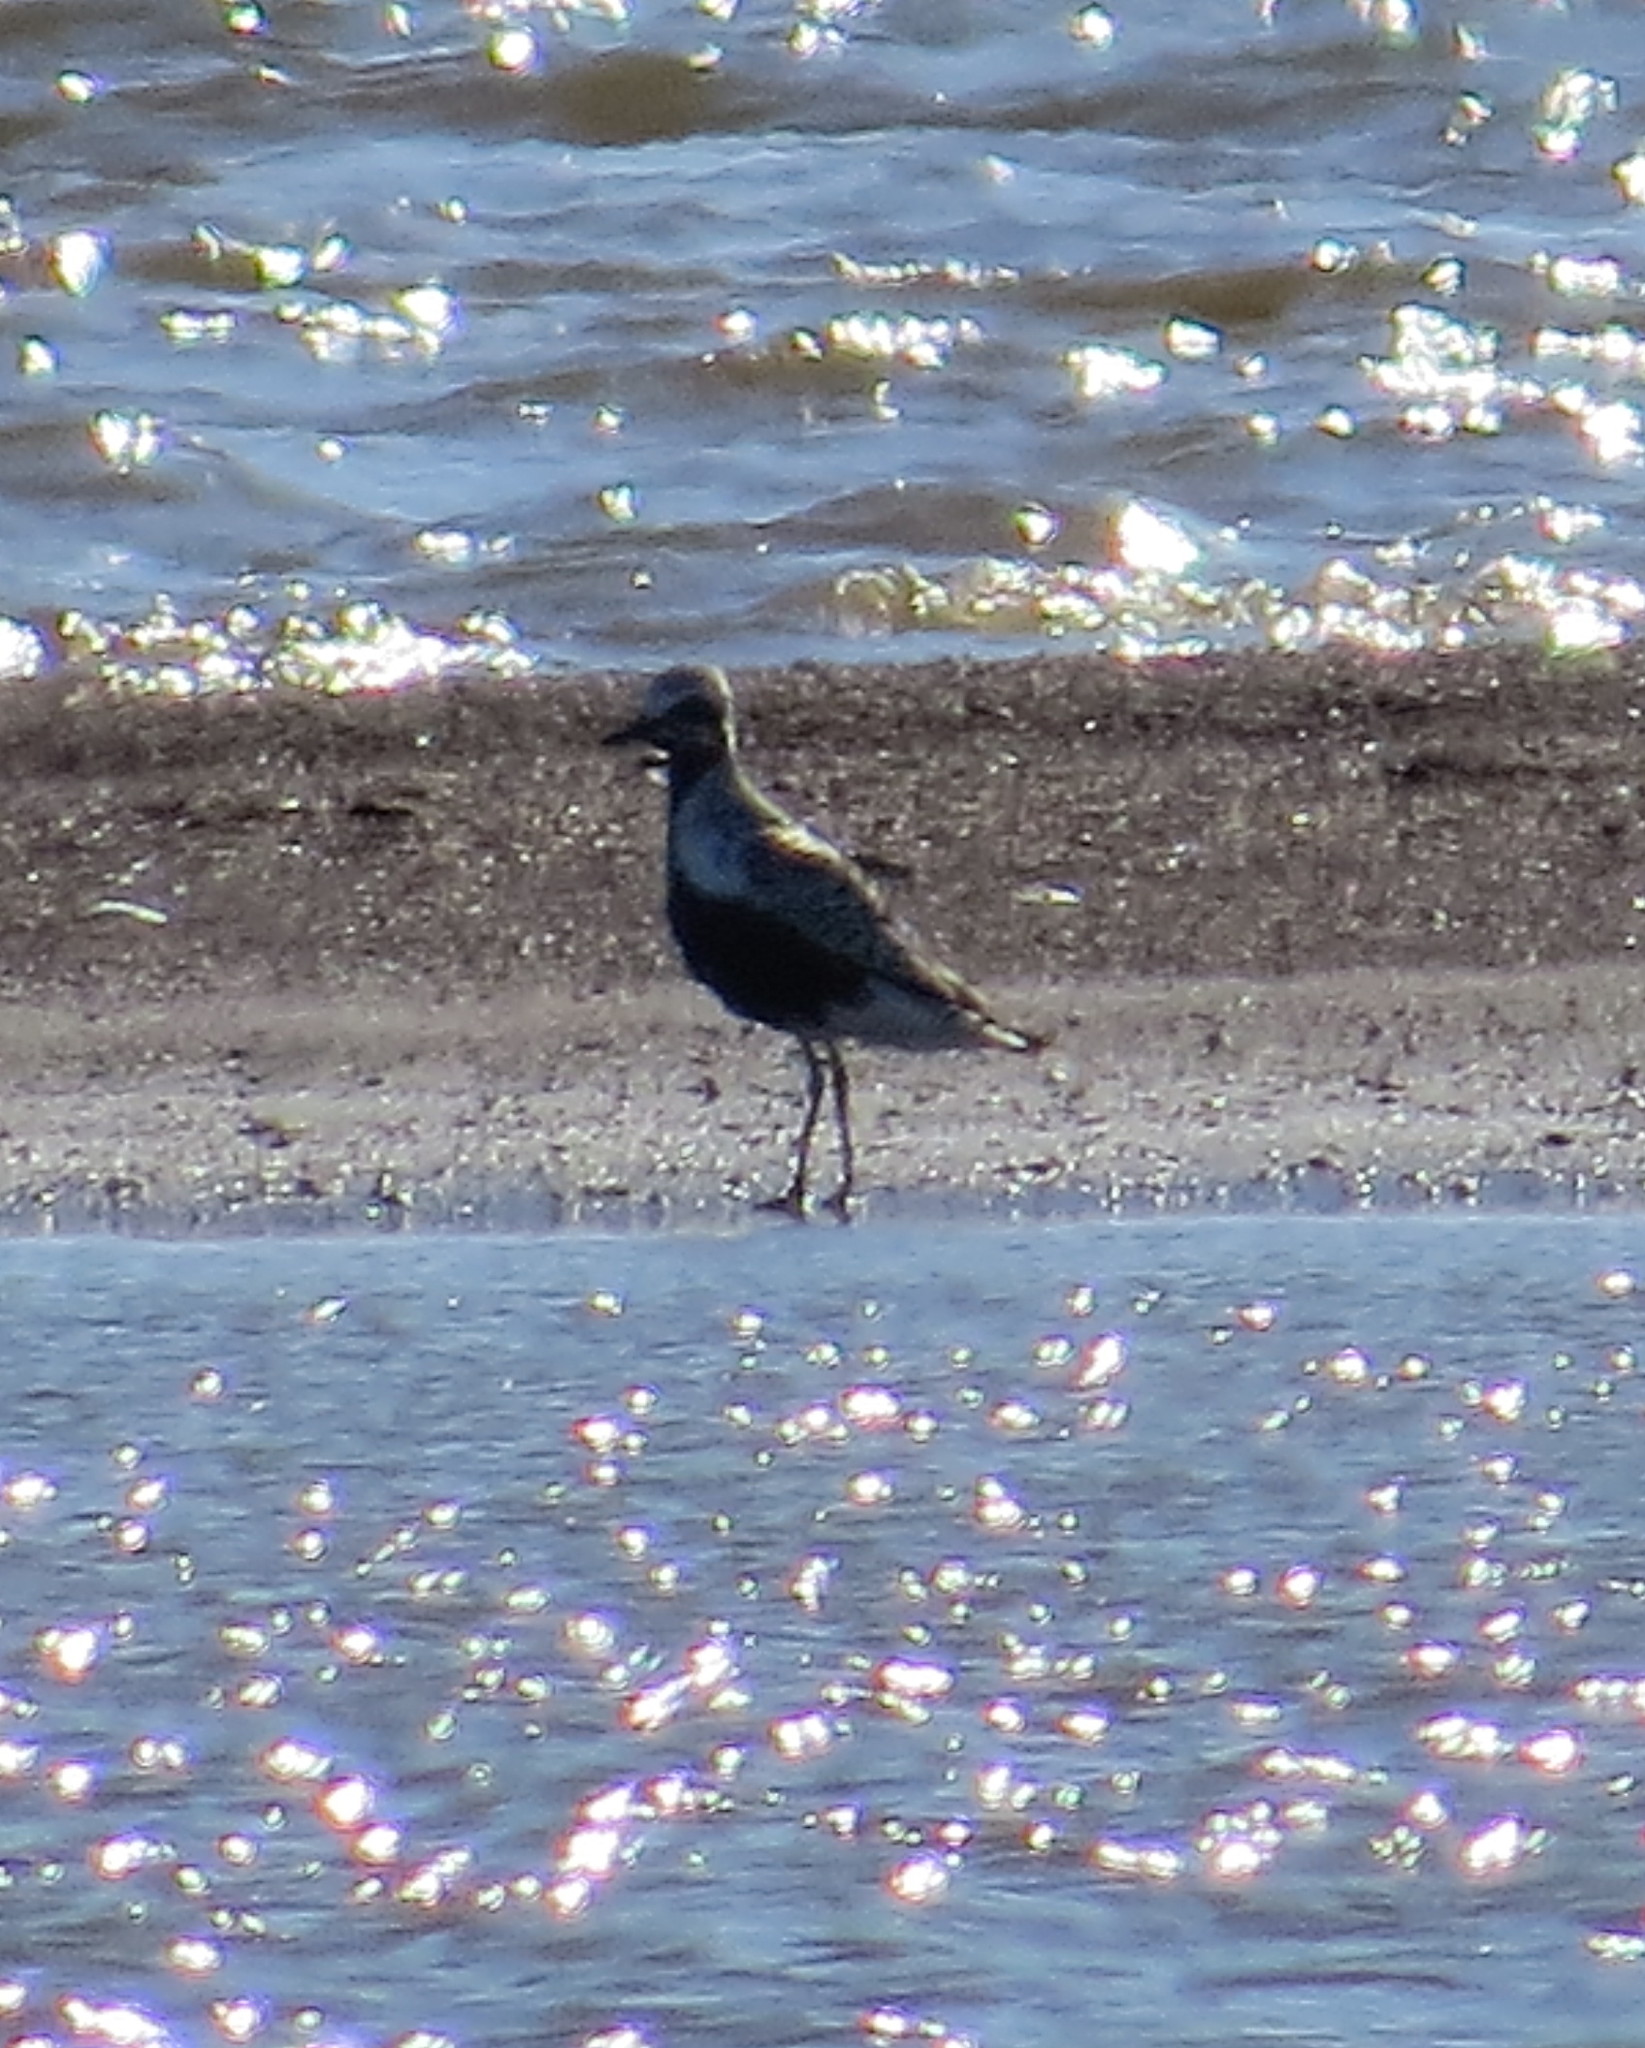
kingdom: Animalia
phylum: Chordata
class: Aves
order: Charadriiformes
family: Charadriidae
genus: Pluvialis
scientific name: Pluvialis squatarola
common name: Grey plover
